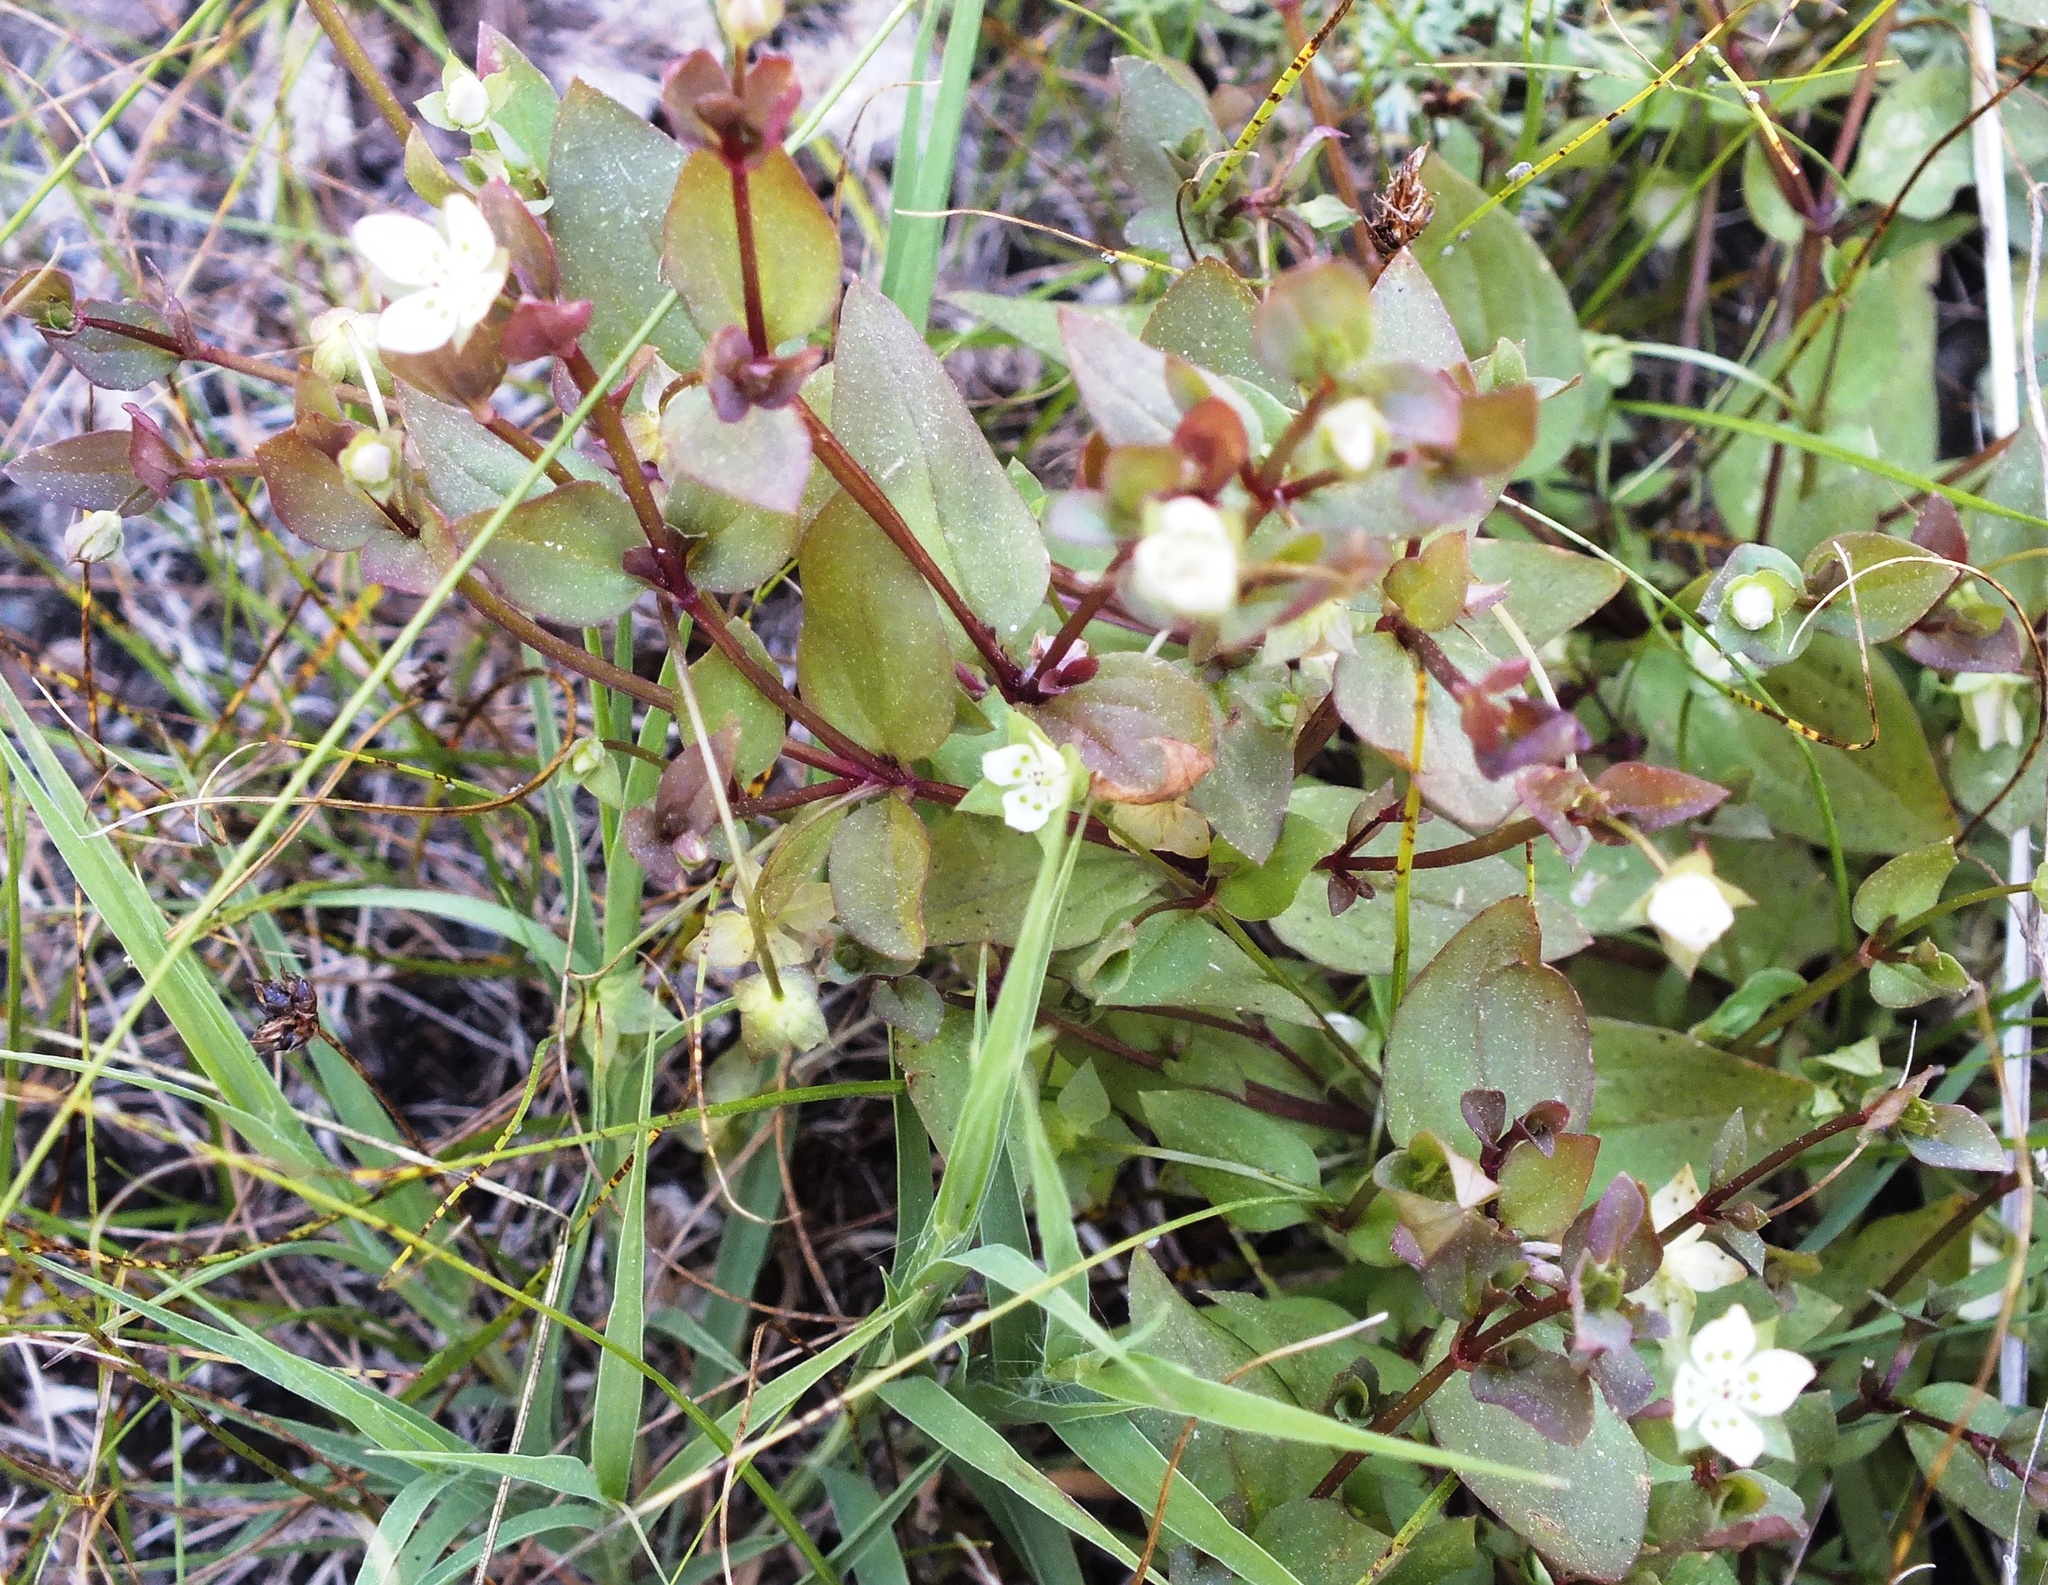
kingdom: Plantae
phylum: Tracheophyta
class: Magnoliopsida
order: Gentianales
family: Gentianaceae
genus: Swertia
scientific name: Swertia dichotoma
